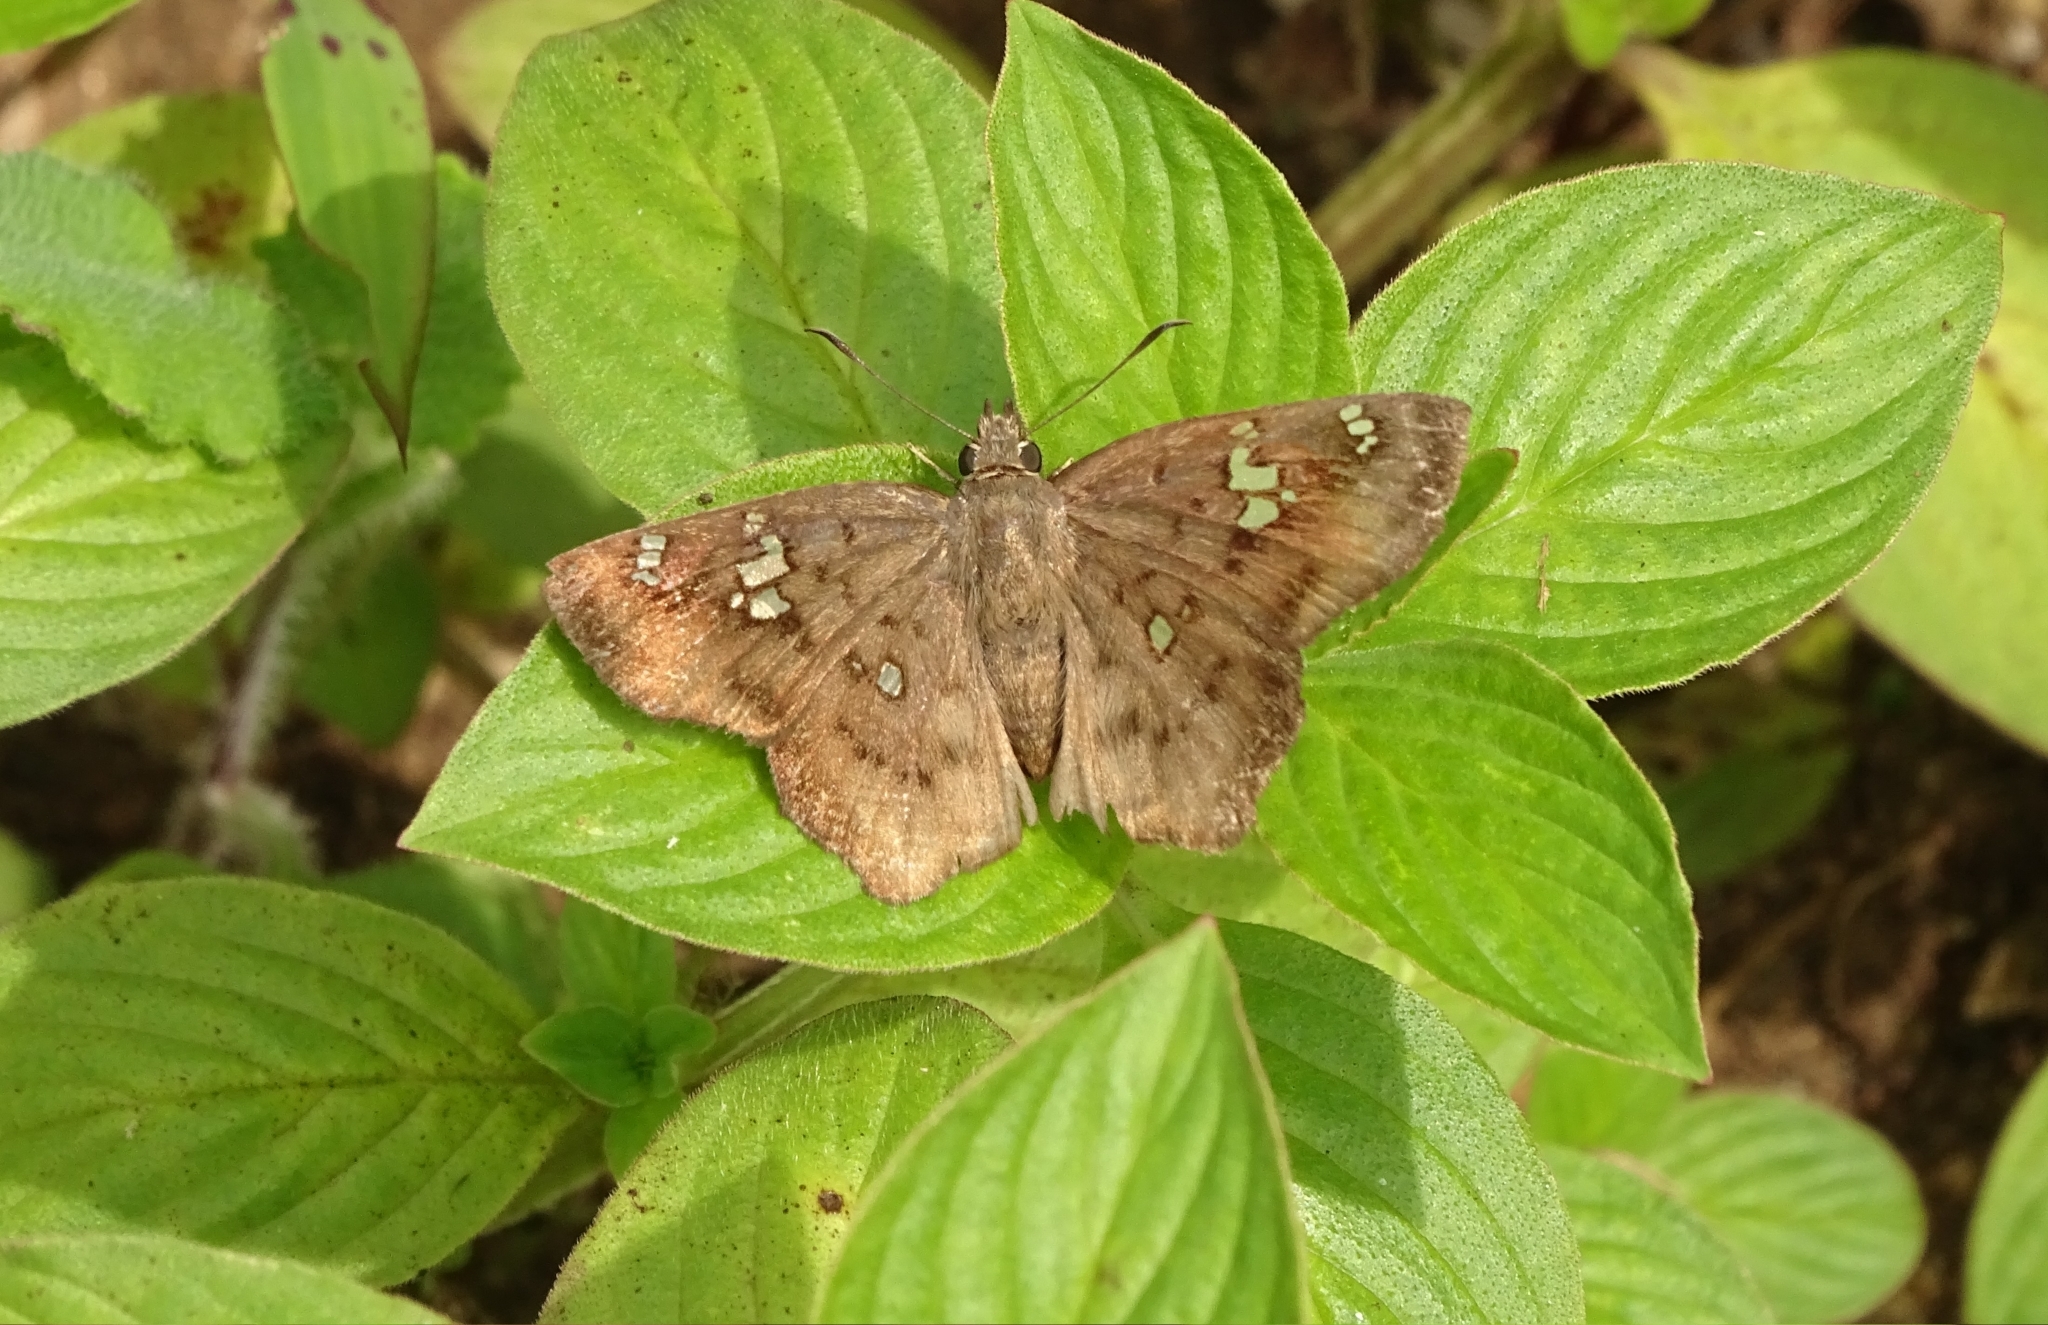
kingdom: Animalia
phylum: Arthropoda
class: Insecta
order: Lepidoptera
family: Hesperiidae
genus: Tapena
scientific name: Tapena thwaitesi
